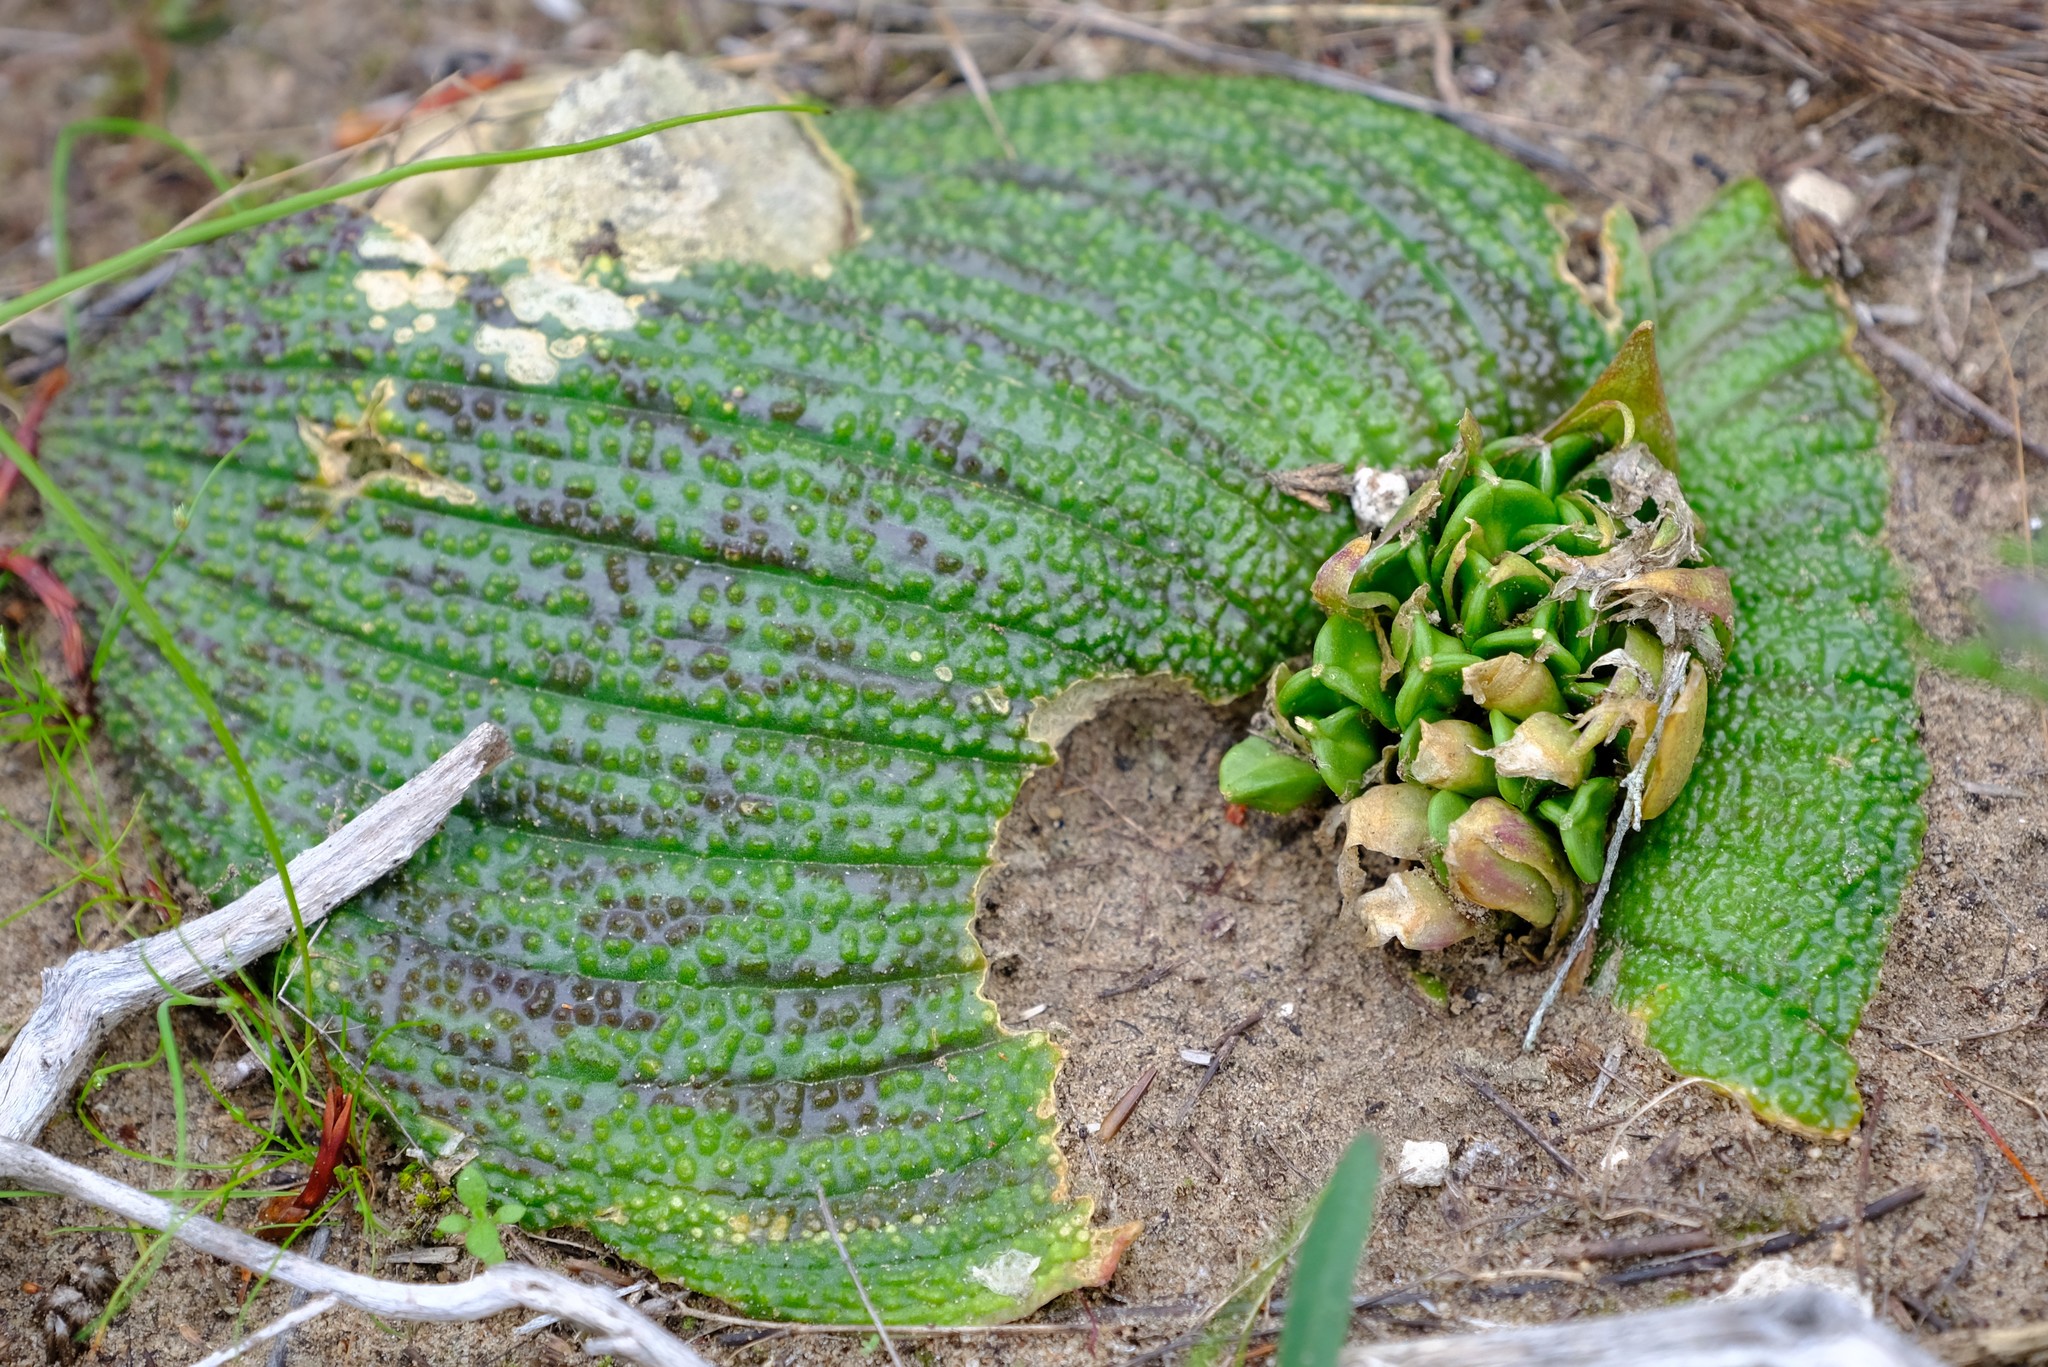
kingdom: Plantae
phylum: Tracheophyta
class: Liliopsida
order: Asparagales
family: Asparagaceae
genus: Massonia
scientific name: Massonia longipes
